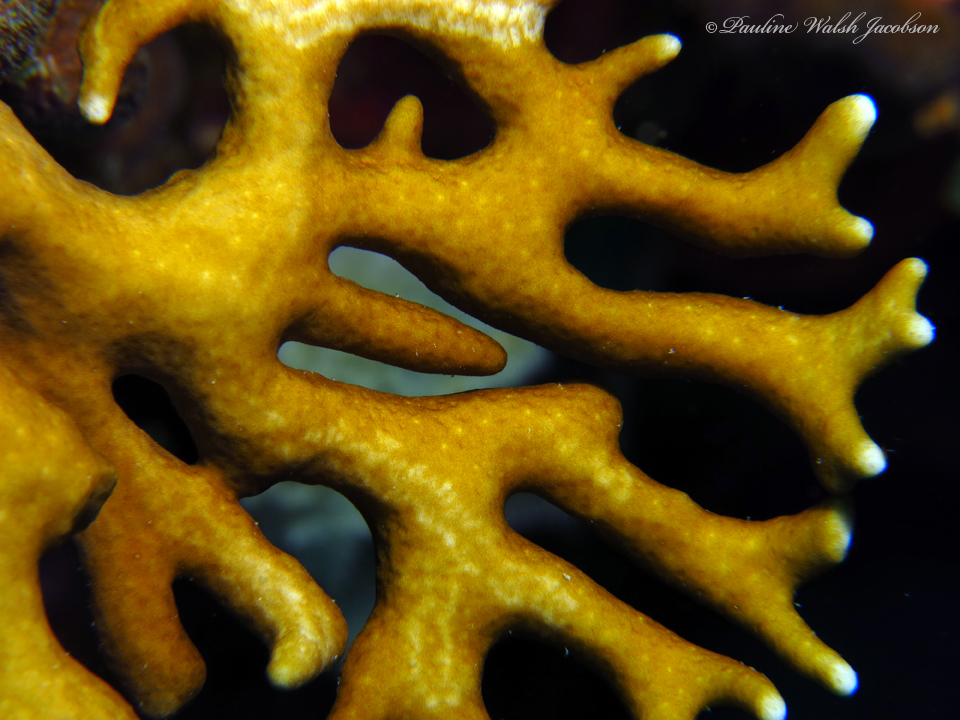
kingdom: Animalia
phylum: Cnidaria
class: Hydrozoa
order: Anthoathecata
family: Milleporidae
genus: Millepora
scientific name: Millepora alcicornis
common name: Branching fire coral
